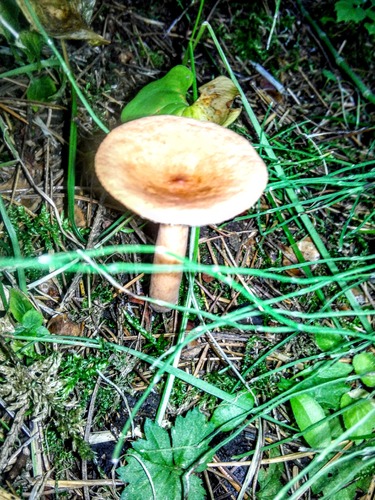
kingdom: Fungi
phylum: Basidiomycota
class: Agaricomycetes
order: Russulales
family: Russulaceae
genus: Lactarius
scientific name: Lactarius
